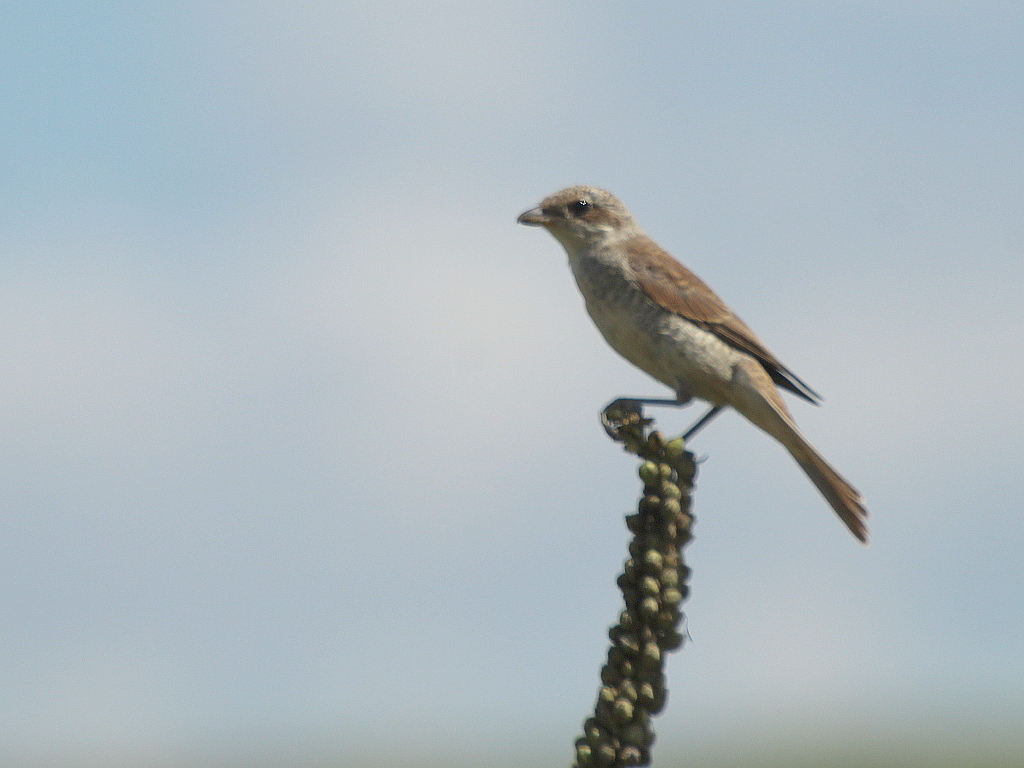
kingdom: Animalia
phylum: Chordata
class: Aves
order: Passeriformes
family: Laniidae
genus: Lanius
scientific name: Lanius collurio
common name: Red-backed shrike
